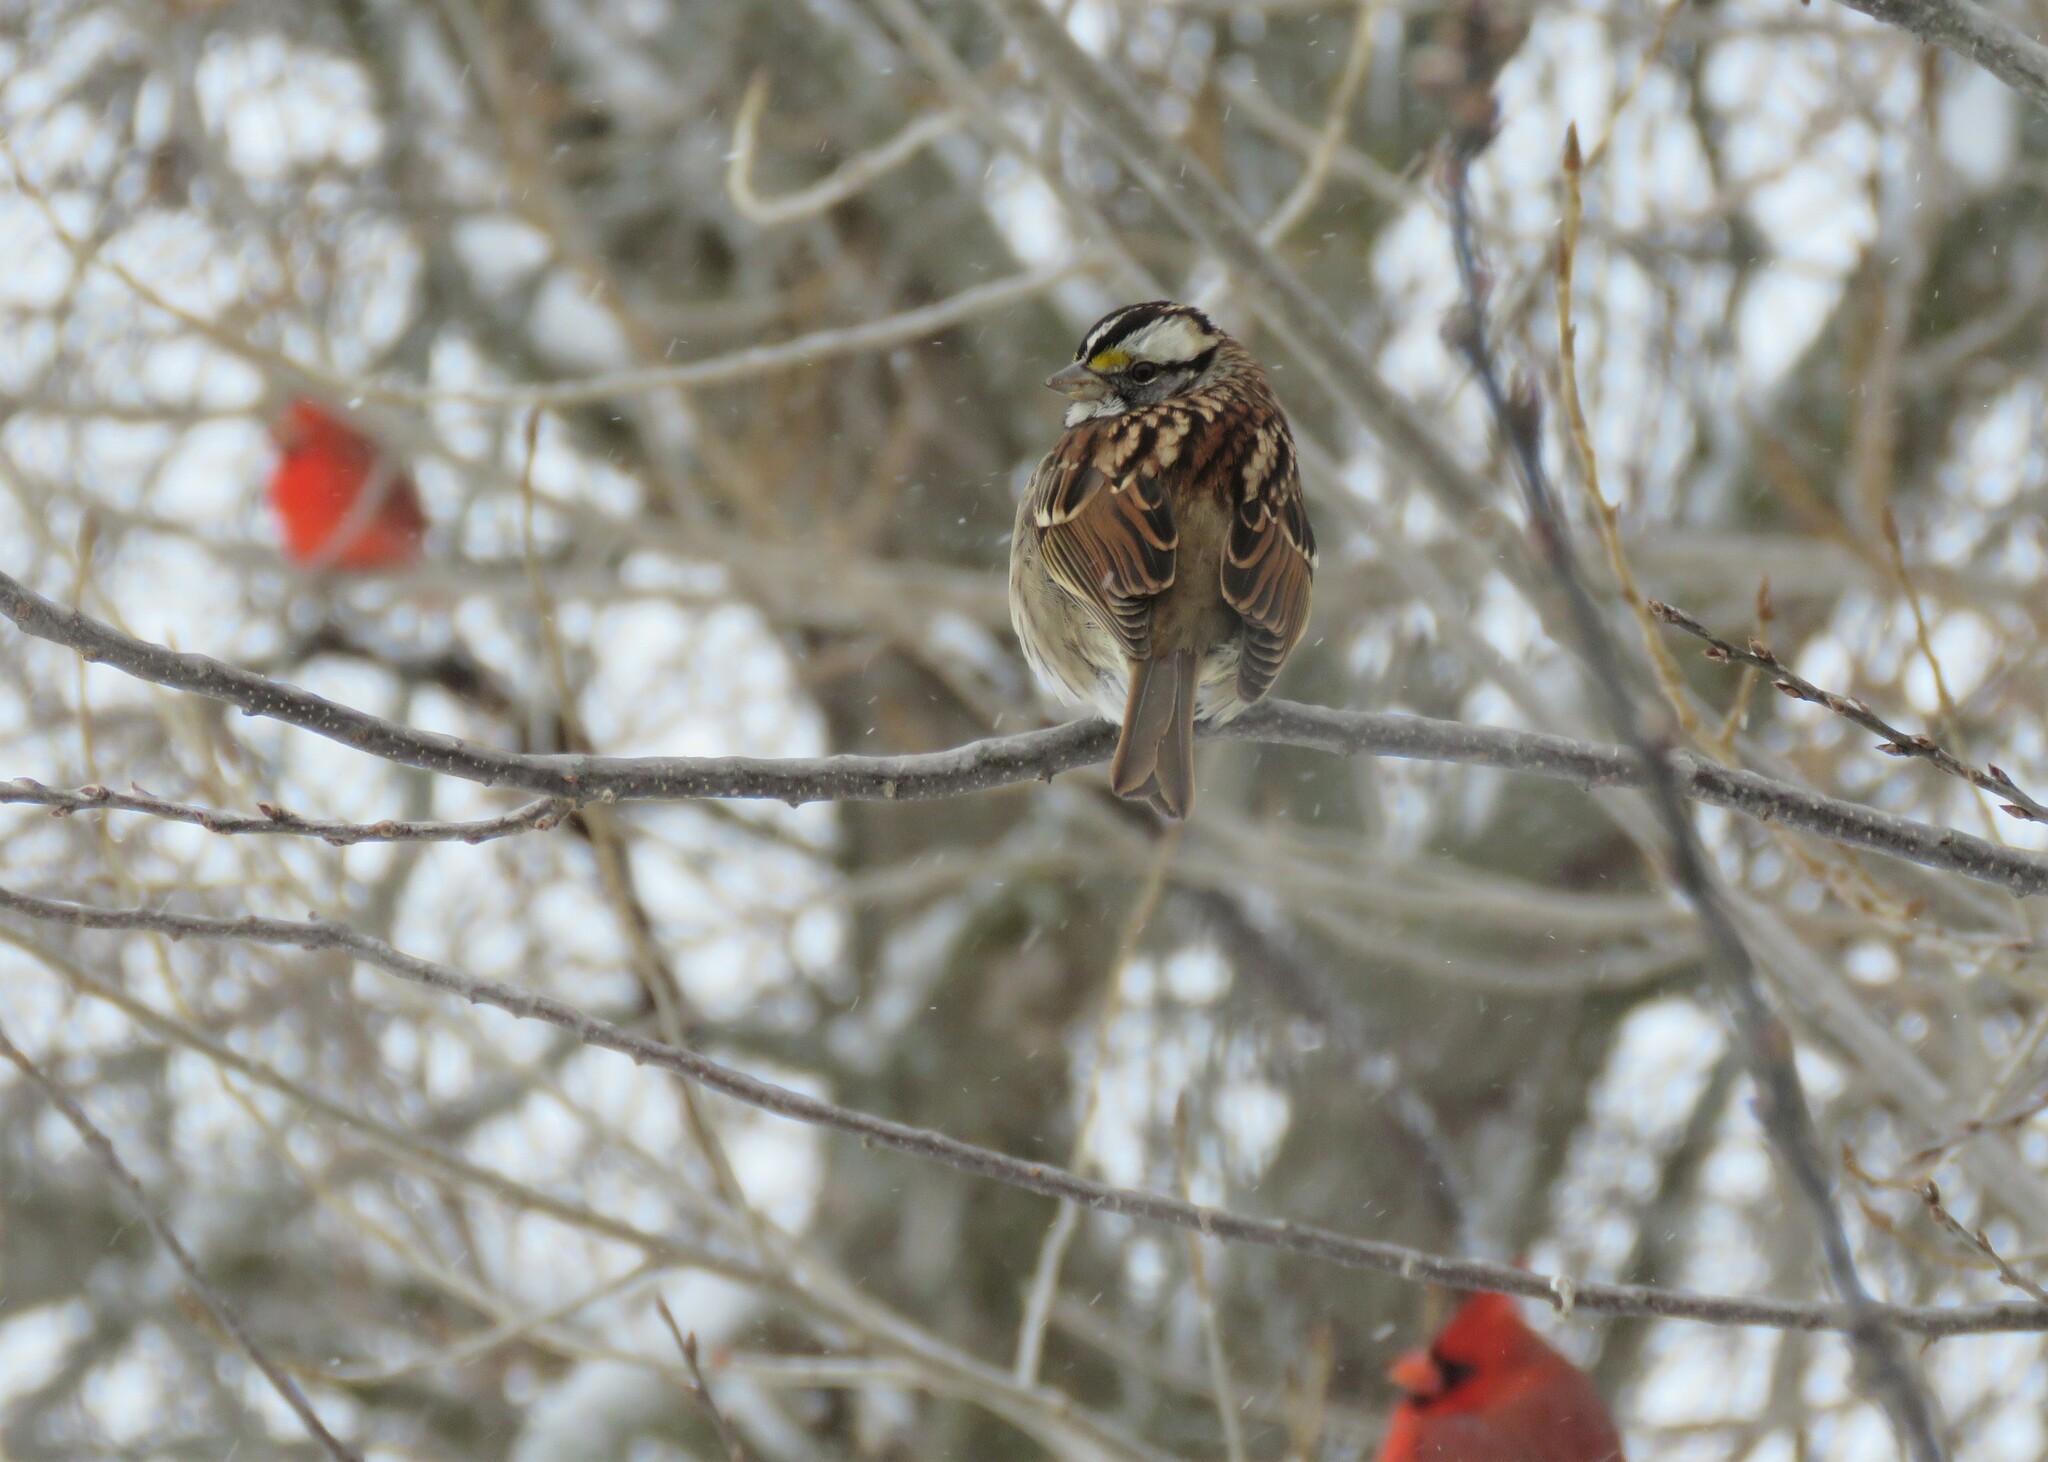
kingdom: Animalia
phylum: Chordata
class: Aves
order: Passeriformes
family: Passerellidae
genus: Zonotrichia
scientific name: Zonotrichia albicollis
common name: White-throated sparrow
